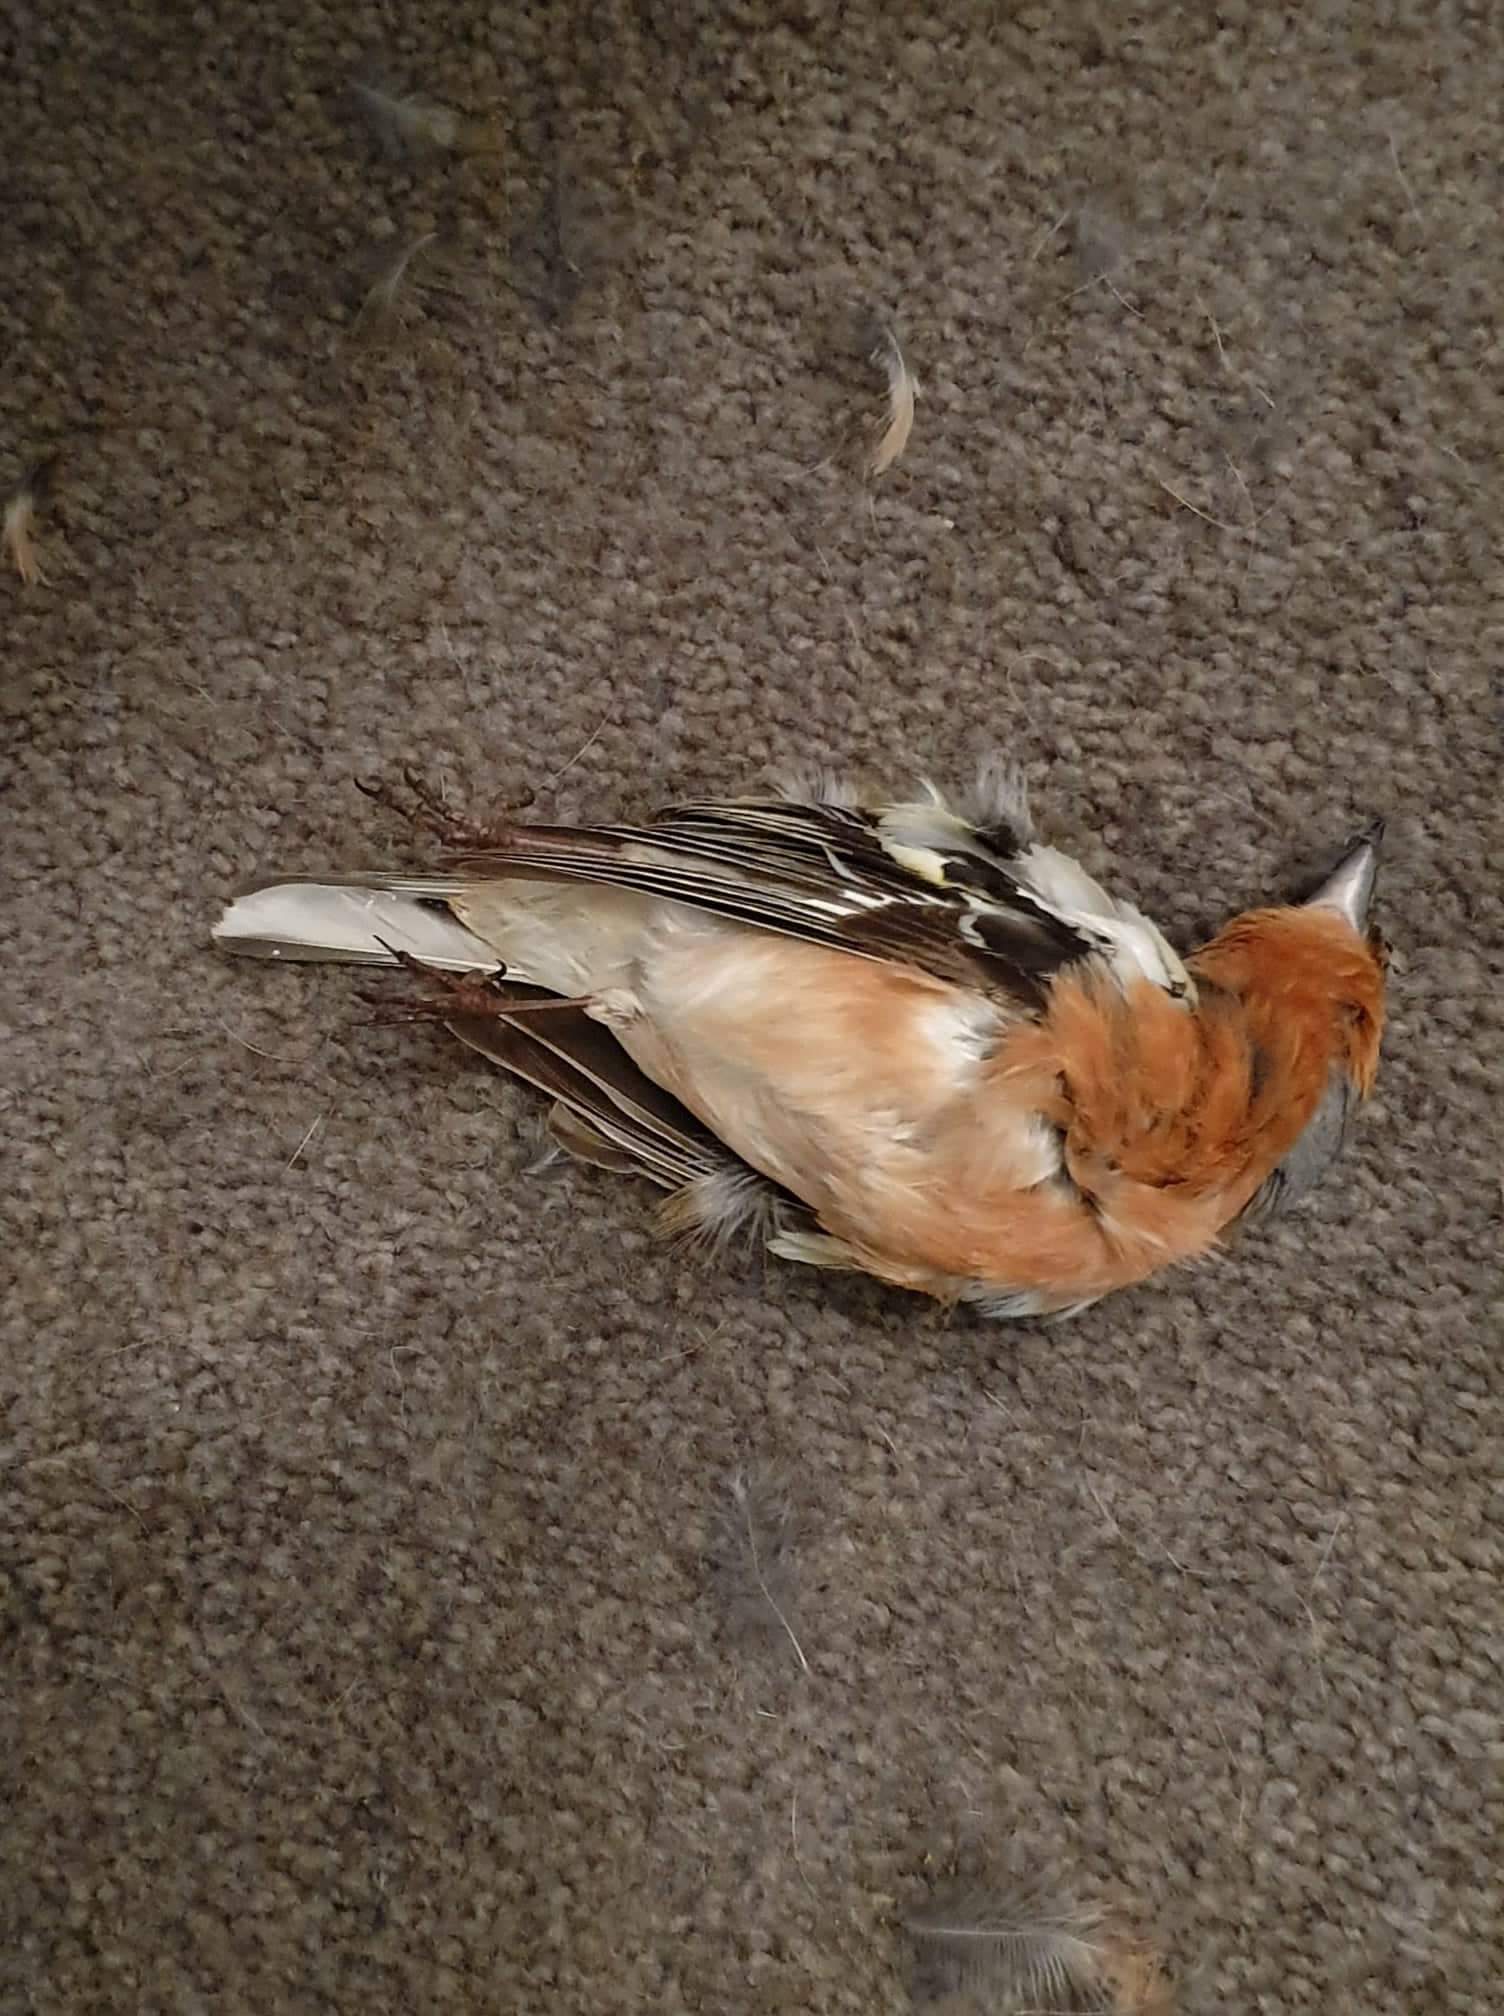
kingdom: Animalia
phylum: Chordata
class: Aves
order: Passeriformes
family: Fringillidae
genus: Fringilla
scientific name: Fringilla coelebs
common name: Common chaffinch
